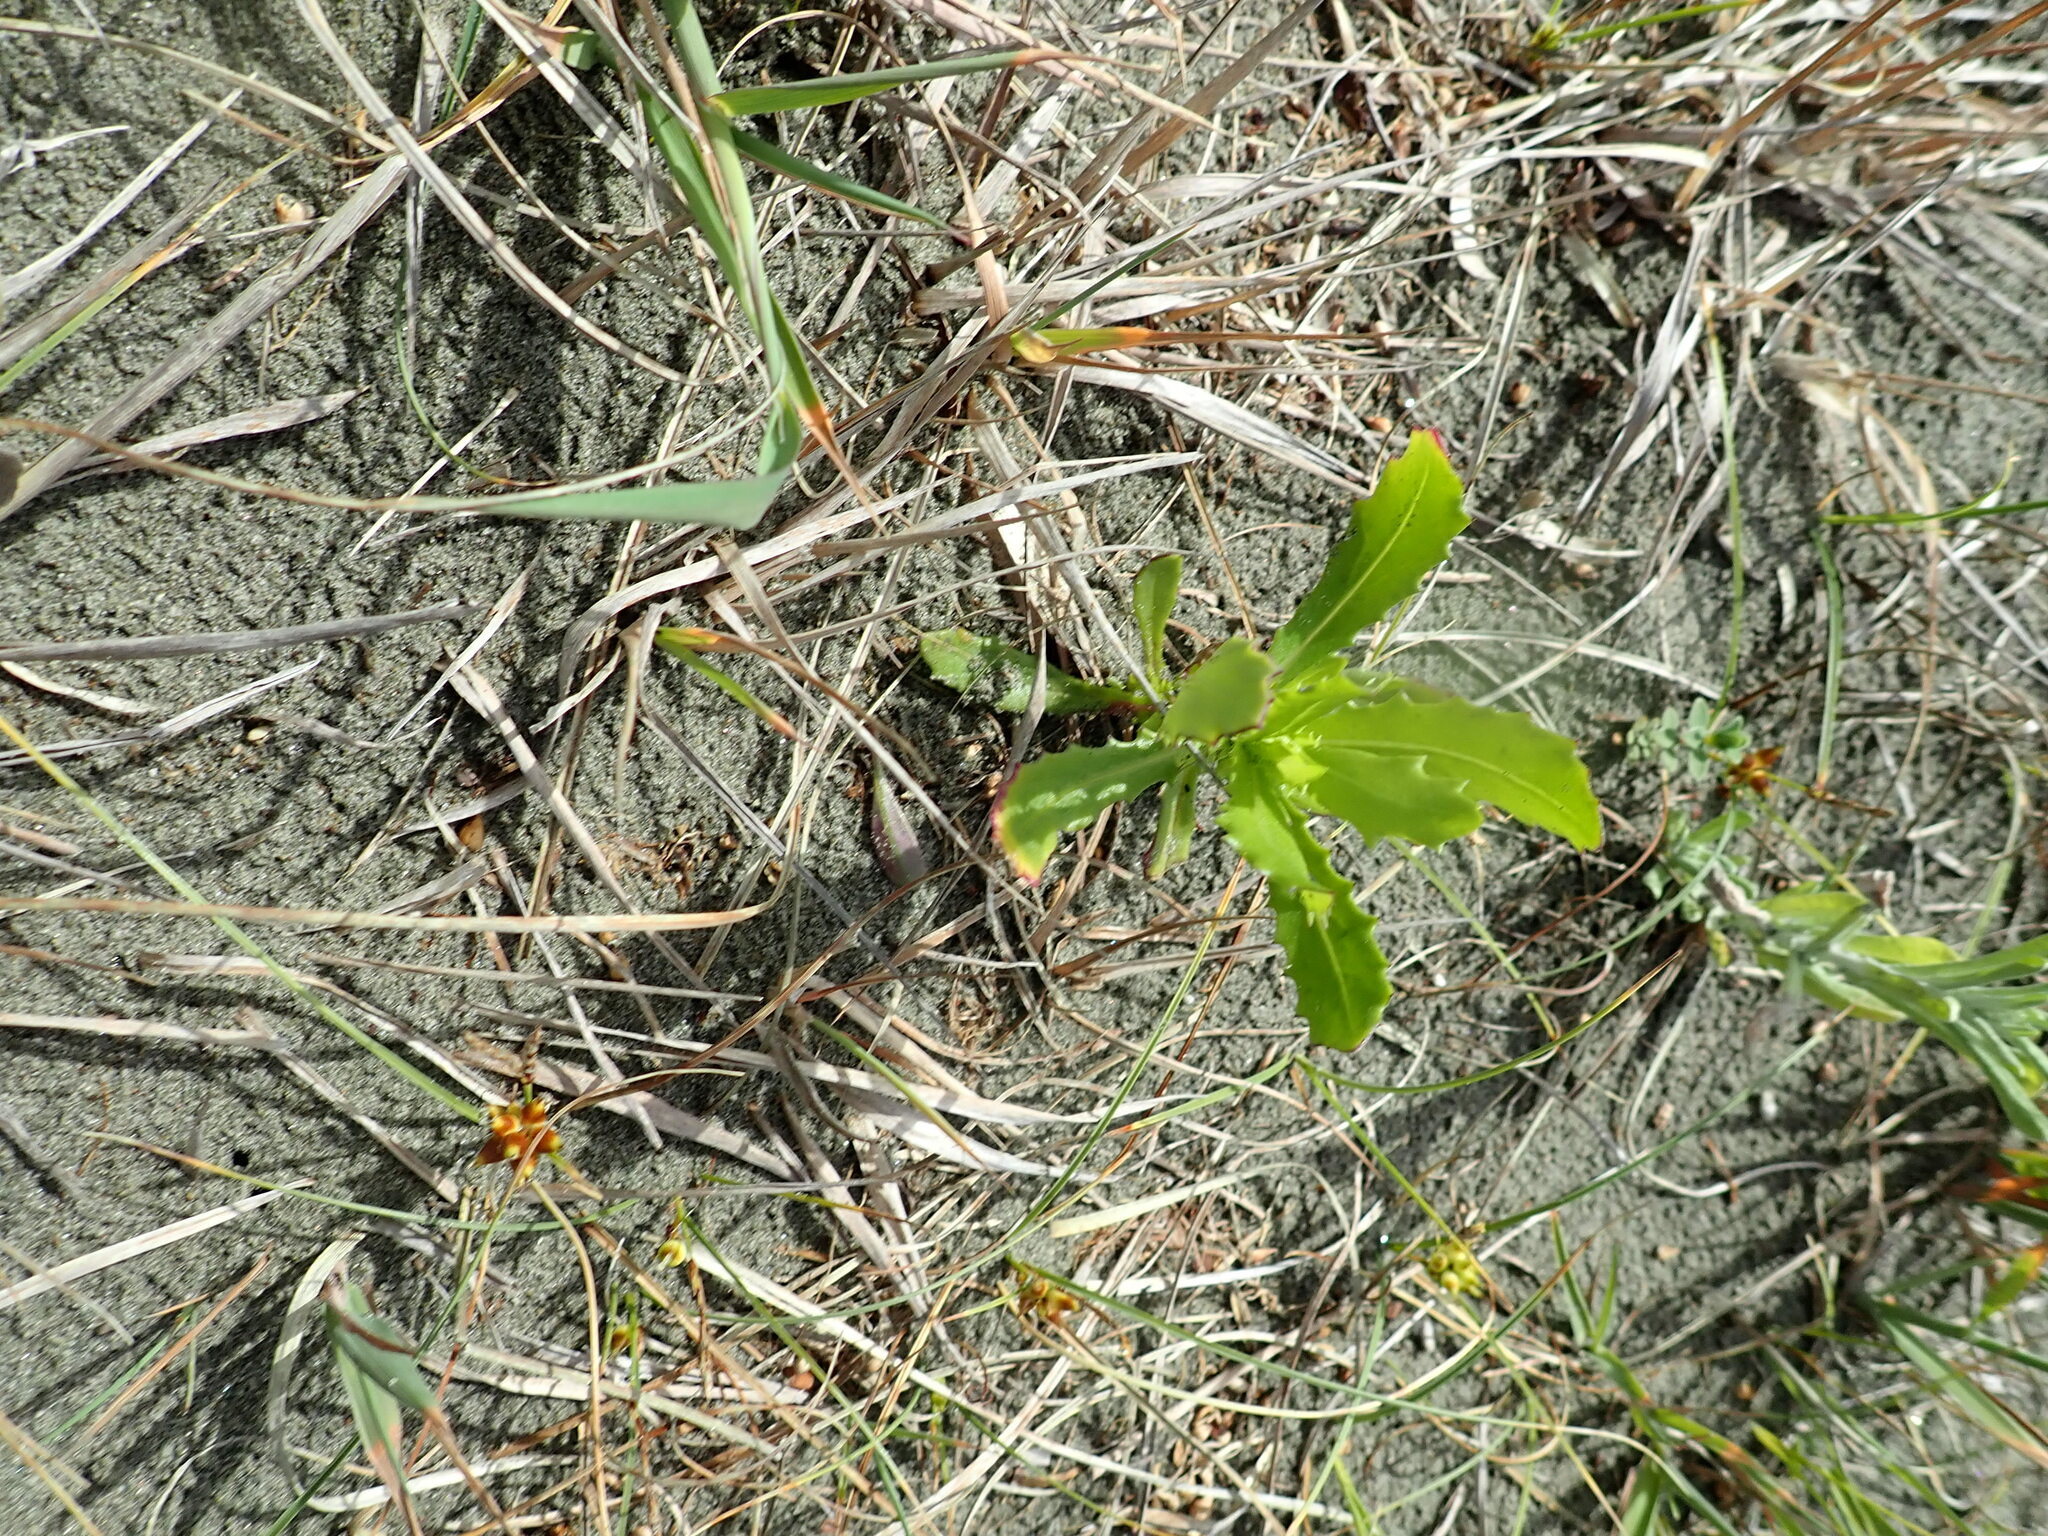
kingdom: Plantae
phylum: Tracheophyta
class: Magnoliopsida
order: Asterales
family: Asteraceae
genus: Senecio
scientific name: Senecio glastifolius
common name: Woad-leaved ragwort
